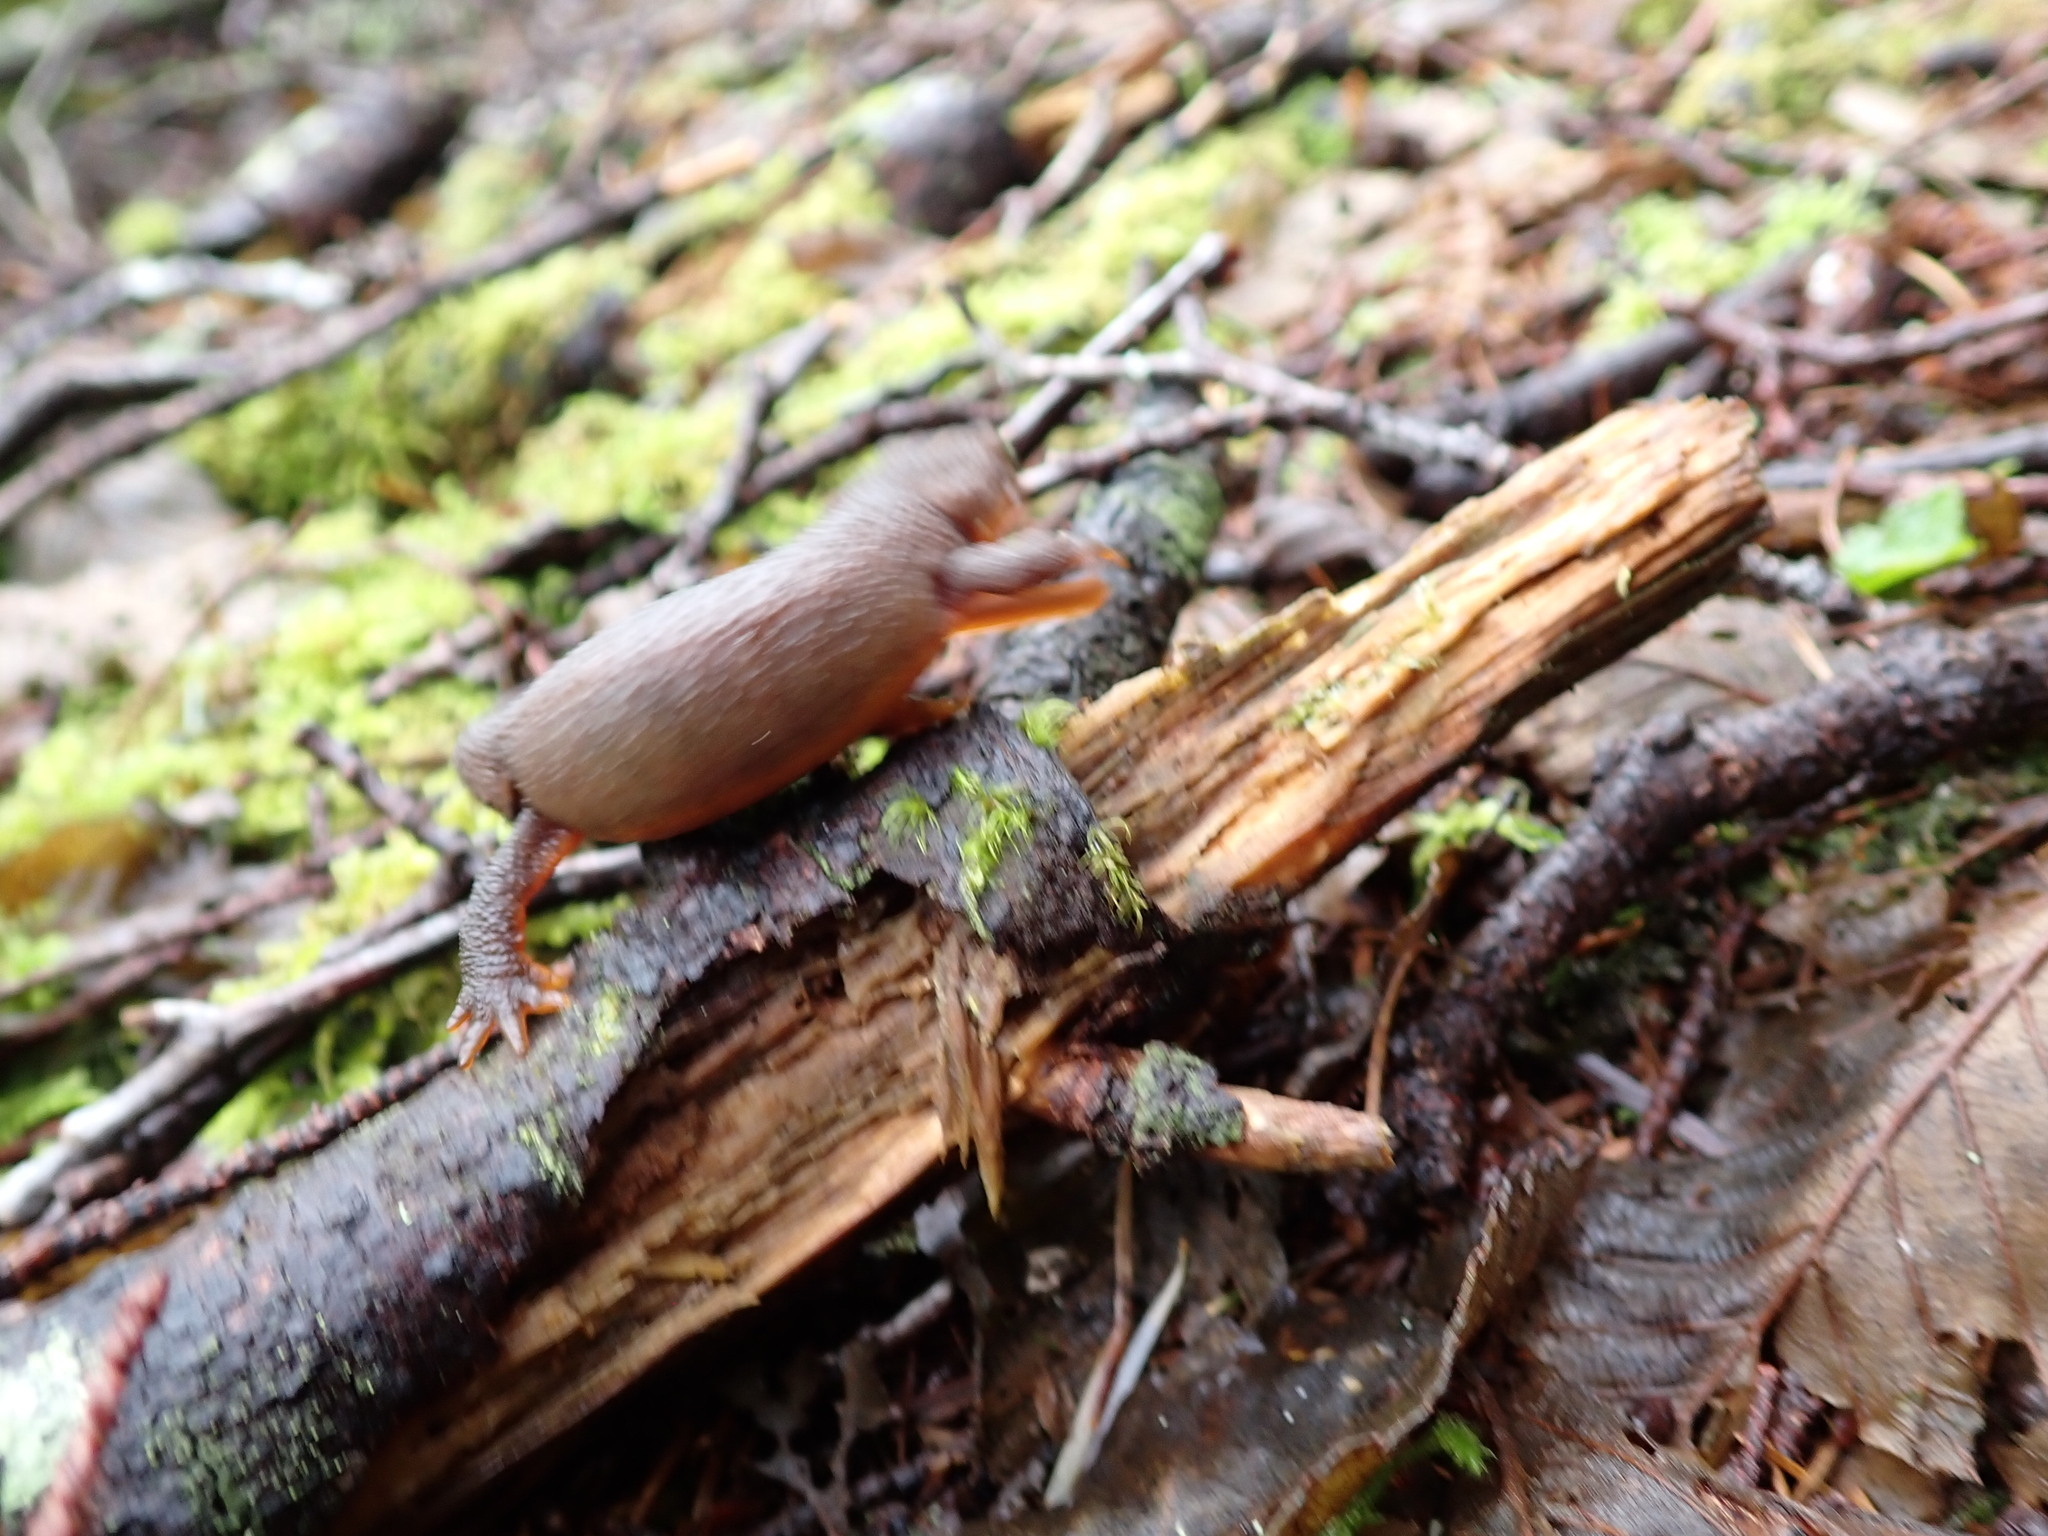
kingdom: Animalia
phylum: Chordata
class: Amphibia
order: Caudata
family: Salamandridae
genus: Taricha
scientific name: Taricha granulosa
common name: Roughskin newt
